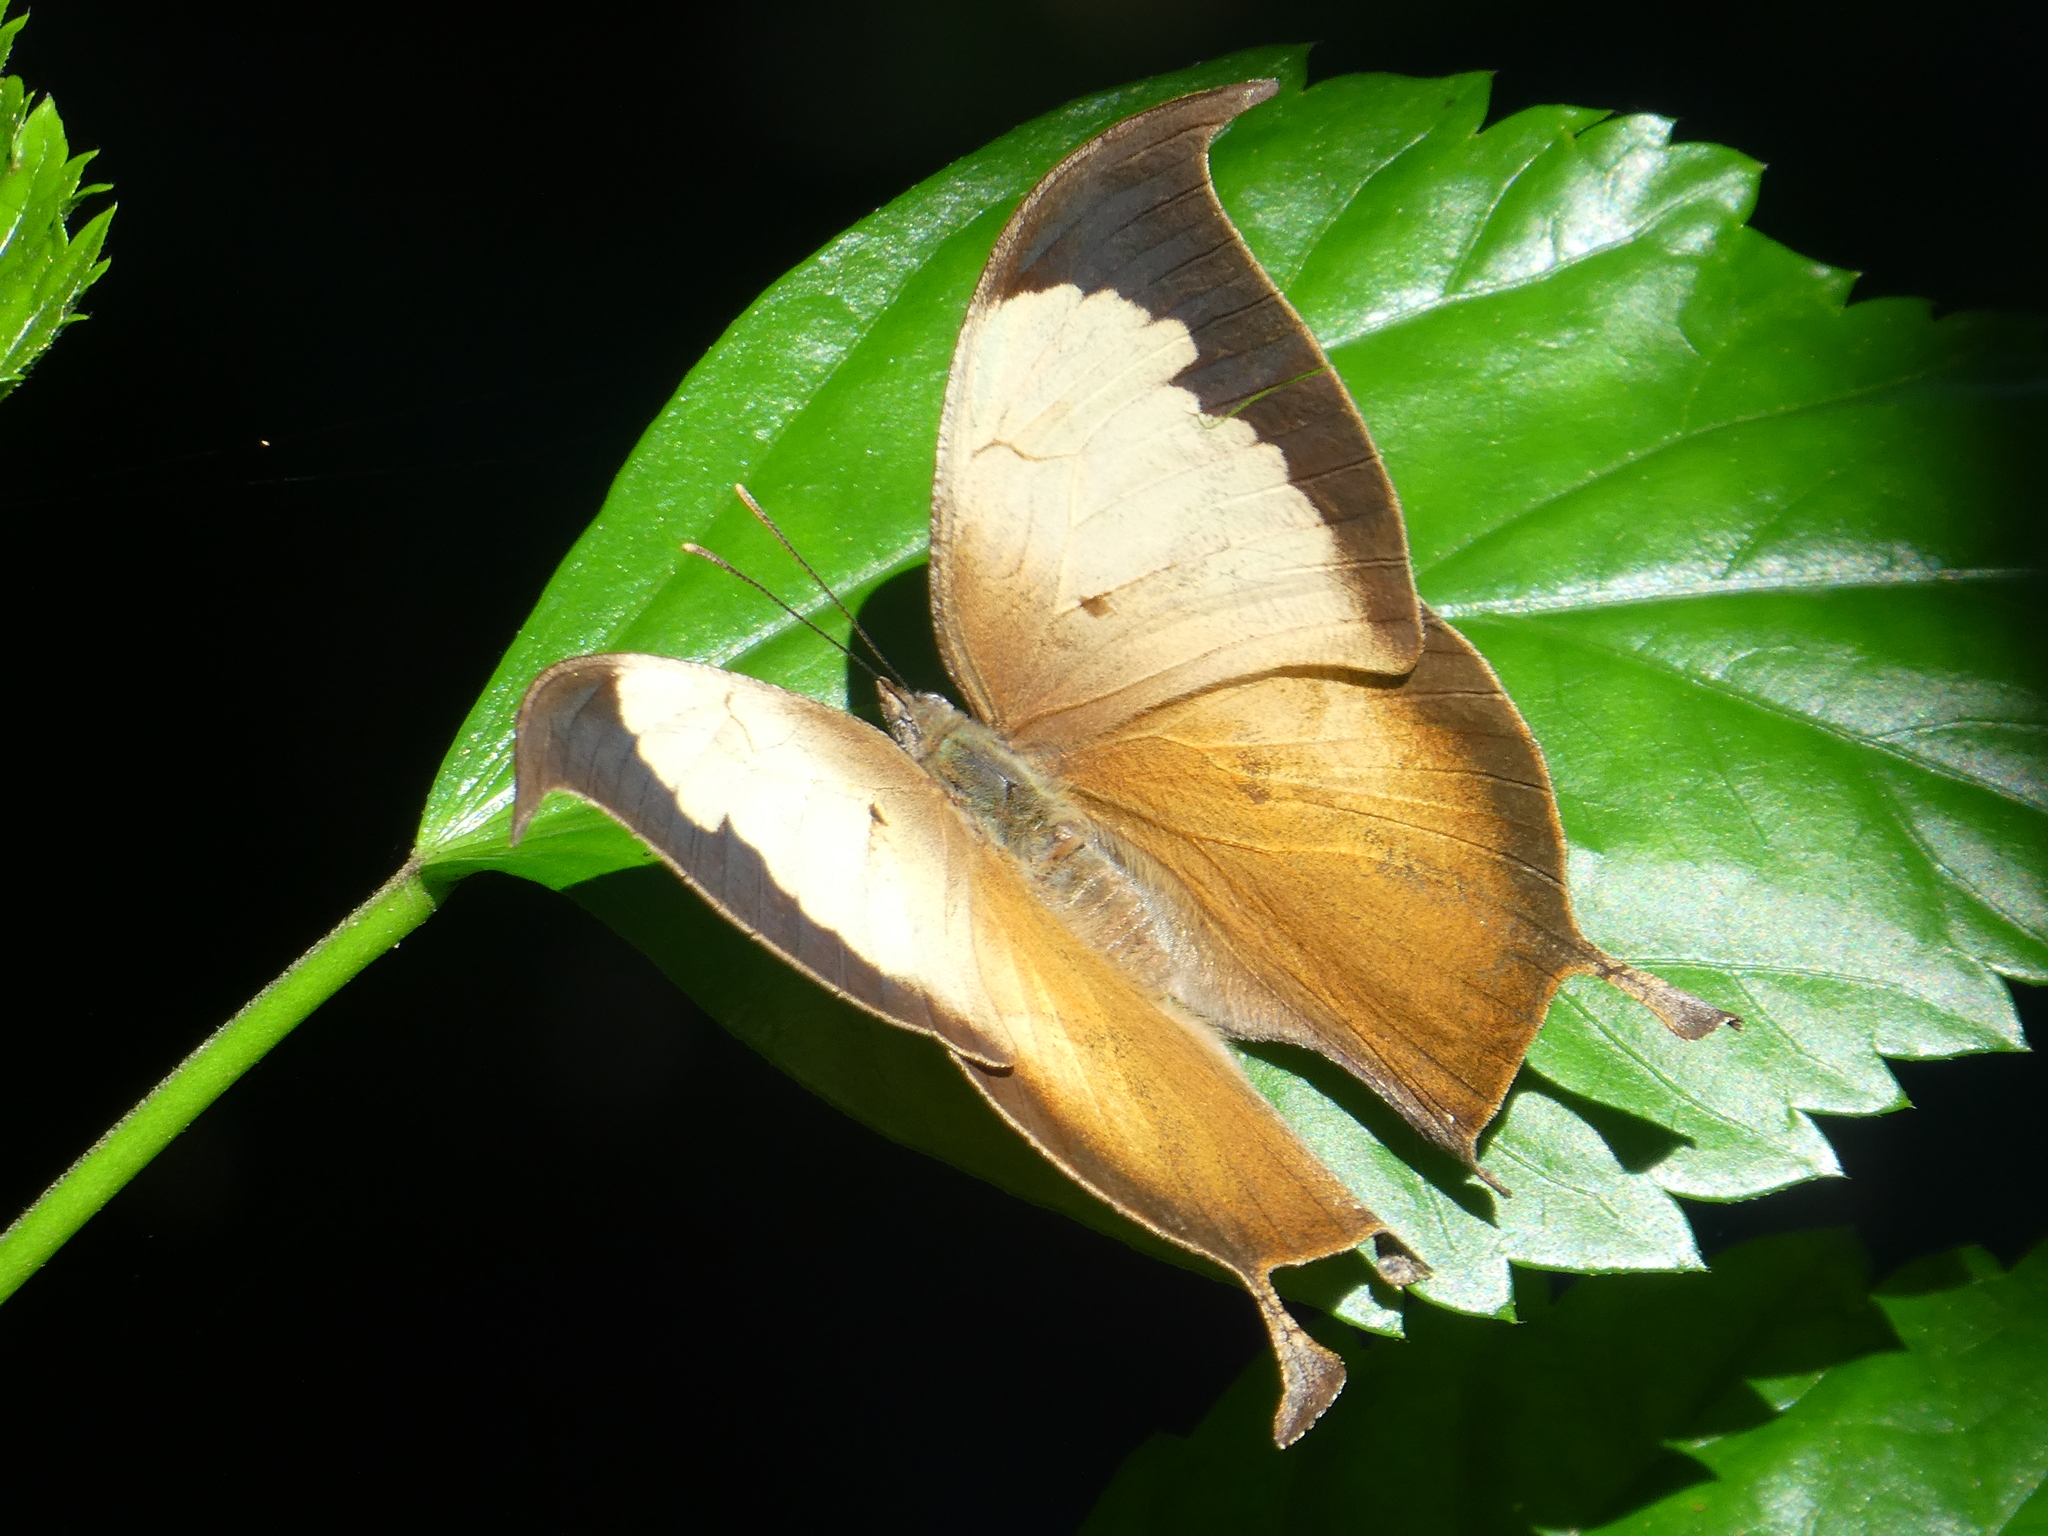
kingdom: Animalia
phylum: Arthropoda
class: Insecta
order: Lepidoptera
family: Nymphalidae
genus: Consul
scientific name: Consul electra
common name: Pearly leafwing
